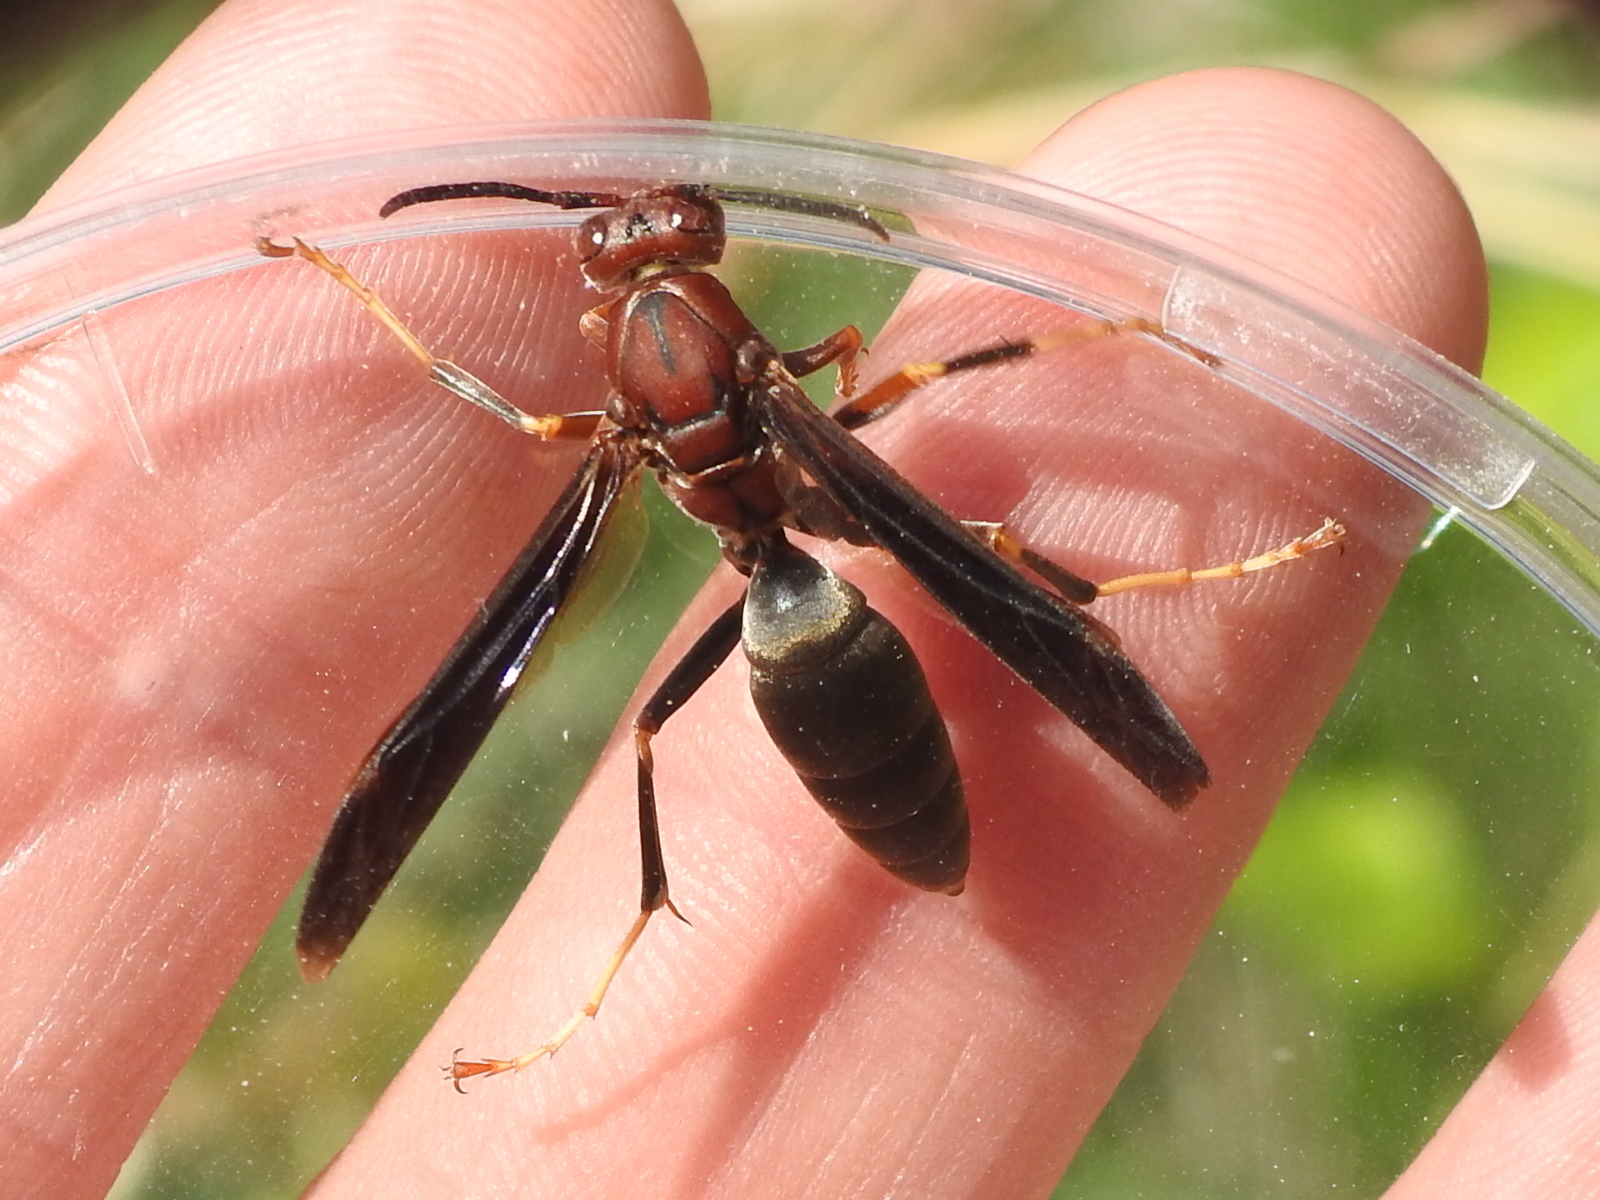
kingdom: Animalia
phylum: Arthropoda
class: Insecta
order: Hymenoptera
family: Eumenidae
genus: Polistes
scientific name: Polistes metricus
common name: Metric paper wasp
